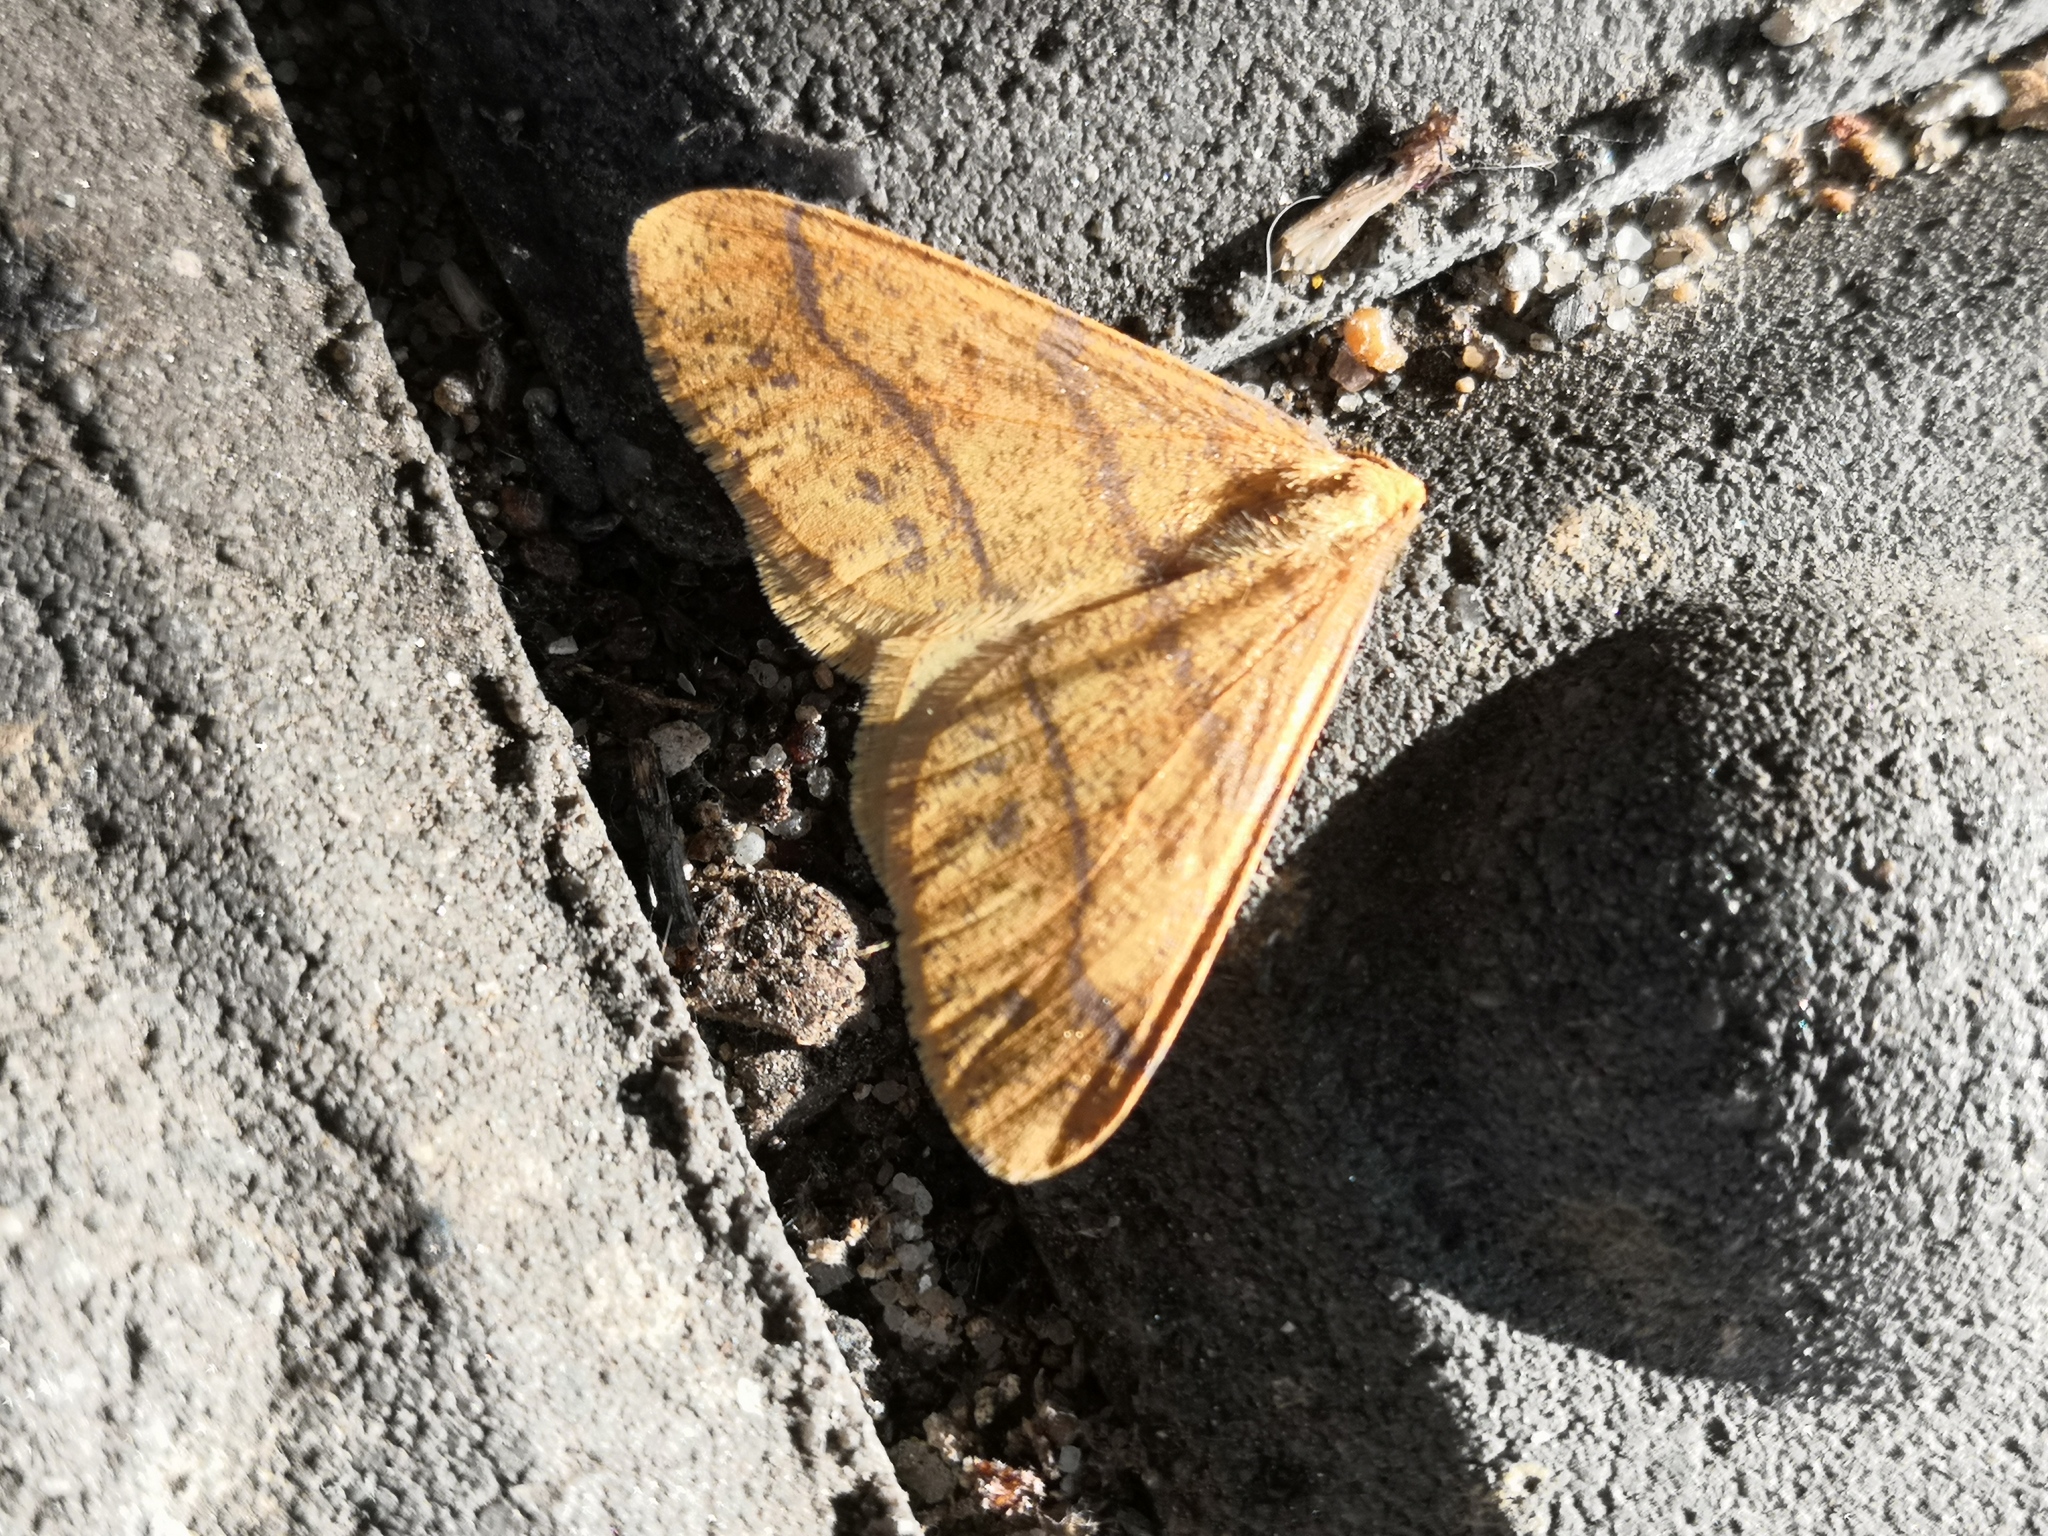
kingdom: Animalia
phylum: Arthropoda
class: Insecta
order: Lepidoptera
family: Geometridae
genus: Agriopis
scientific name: Agriopis aurantiaria
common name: Scarce umber
